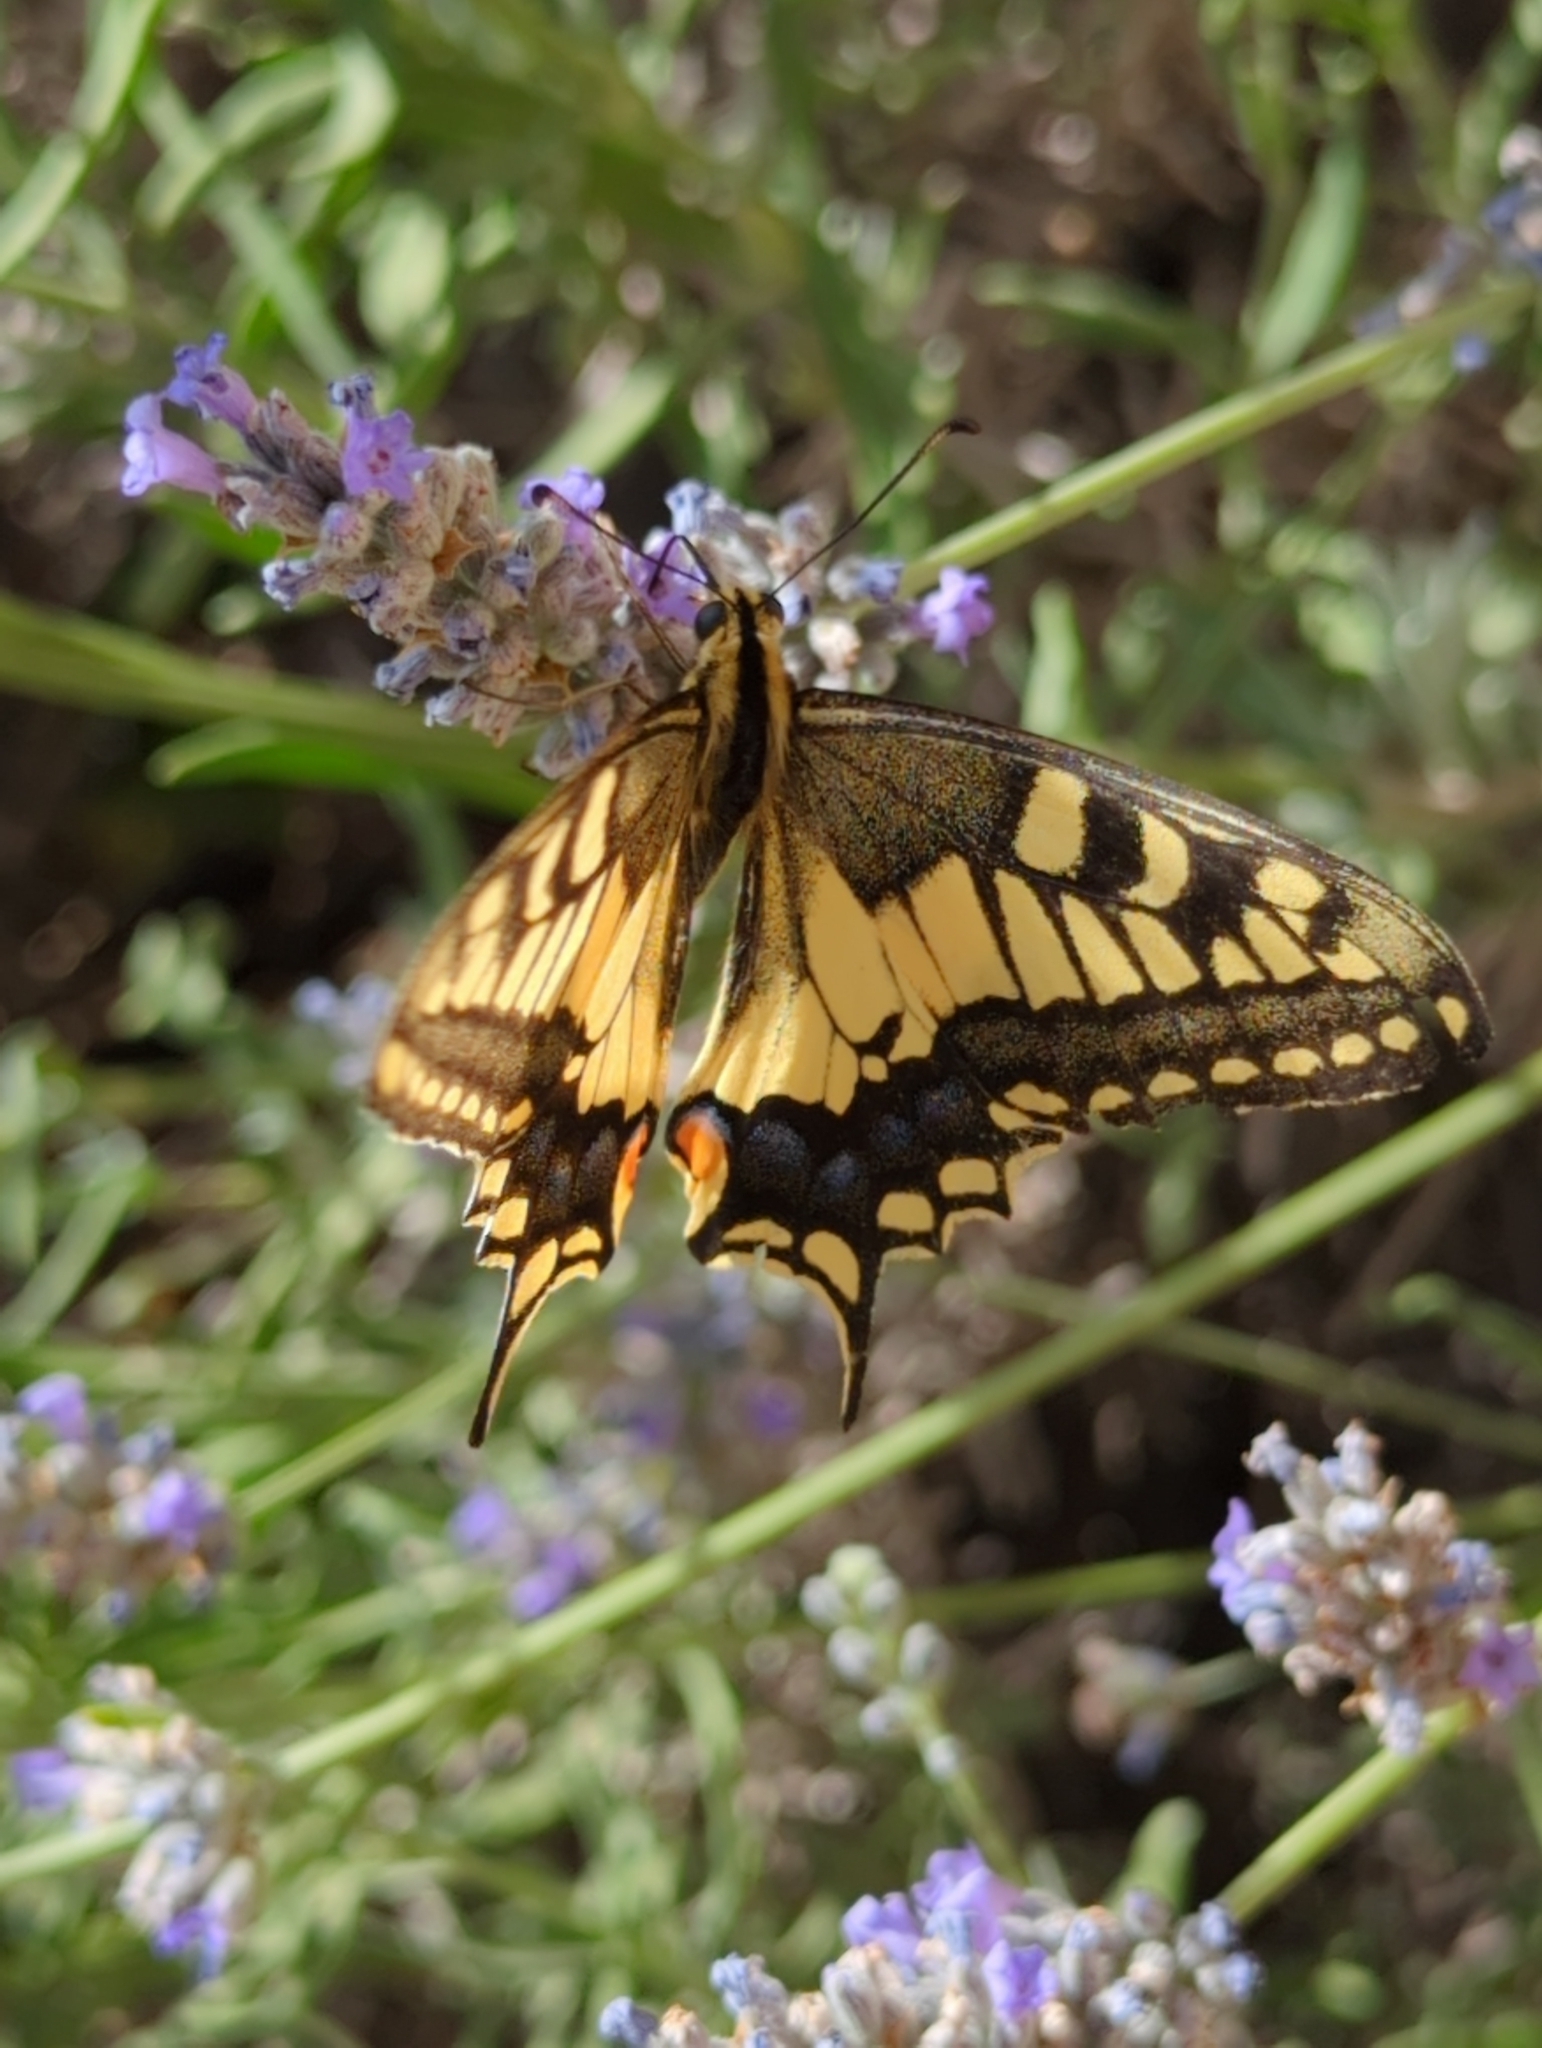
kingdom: Animalia
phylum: Arthropoda
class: Insecta
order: Lepidoptera
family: Papilionidae
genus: Papilio
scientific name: Papilio machaon
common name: Swallowtail
